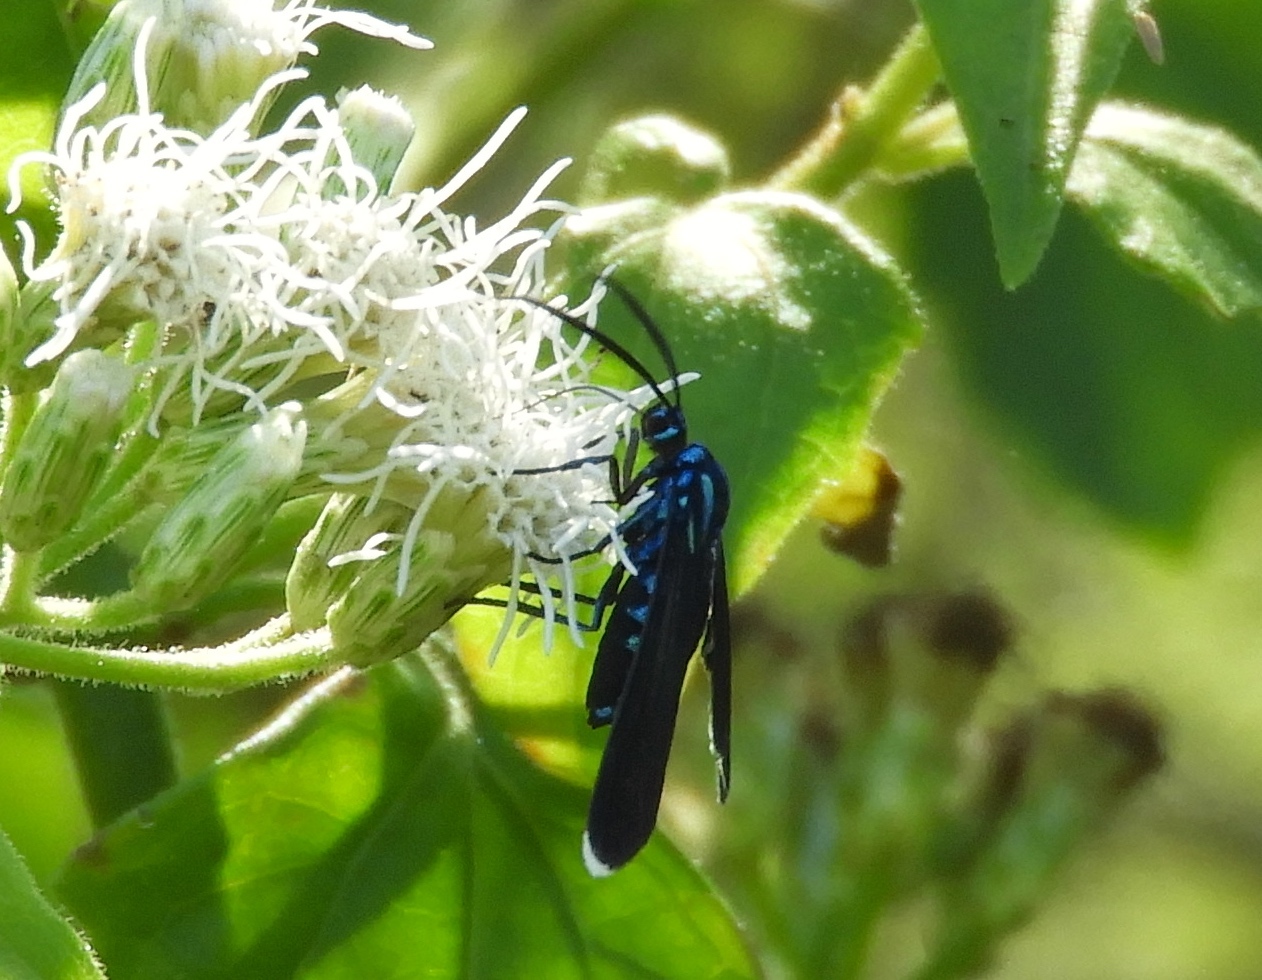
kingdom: Animalia
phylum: Arthropoda
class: Insecta
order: Lepidoptera
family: Erebidae
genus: Uranophora
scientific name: Uranophora leucotela
